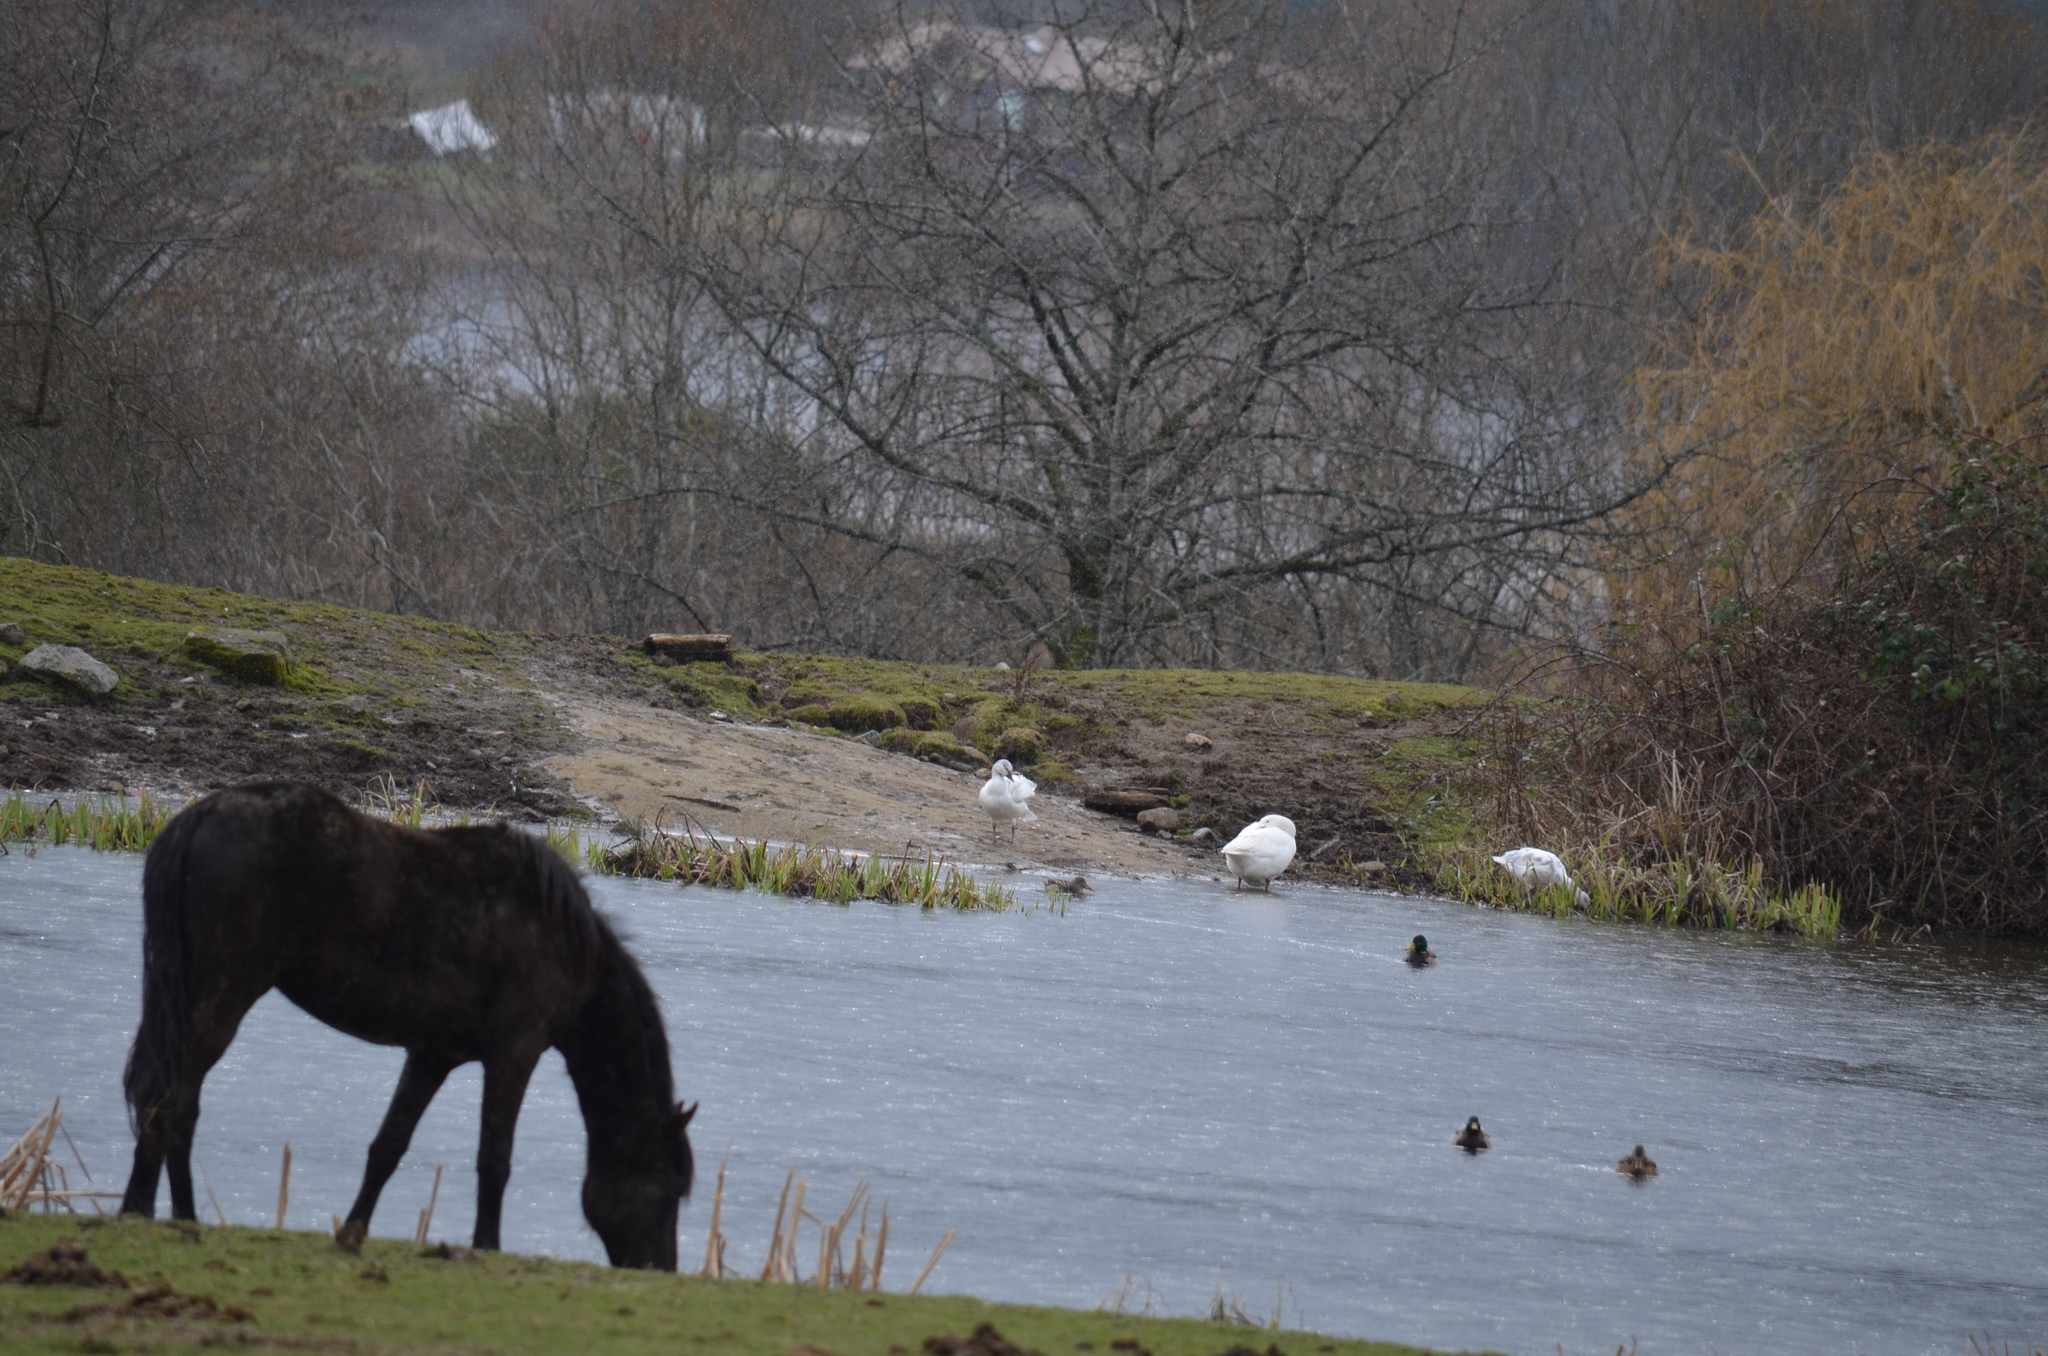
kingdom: Animalia
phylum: Chordata
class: Aves
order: Anseriformes
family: Anatidae
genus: Anas
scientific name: Anas platyrhynchos
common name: Mallard
